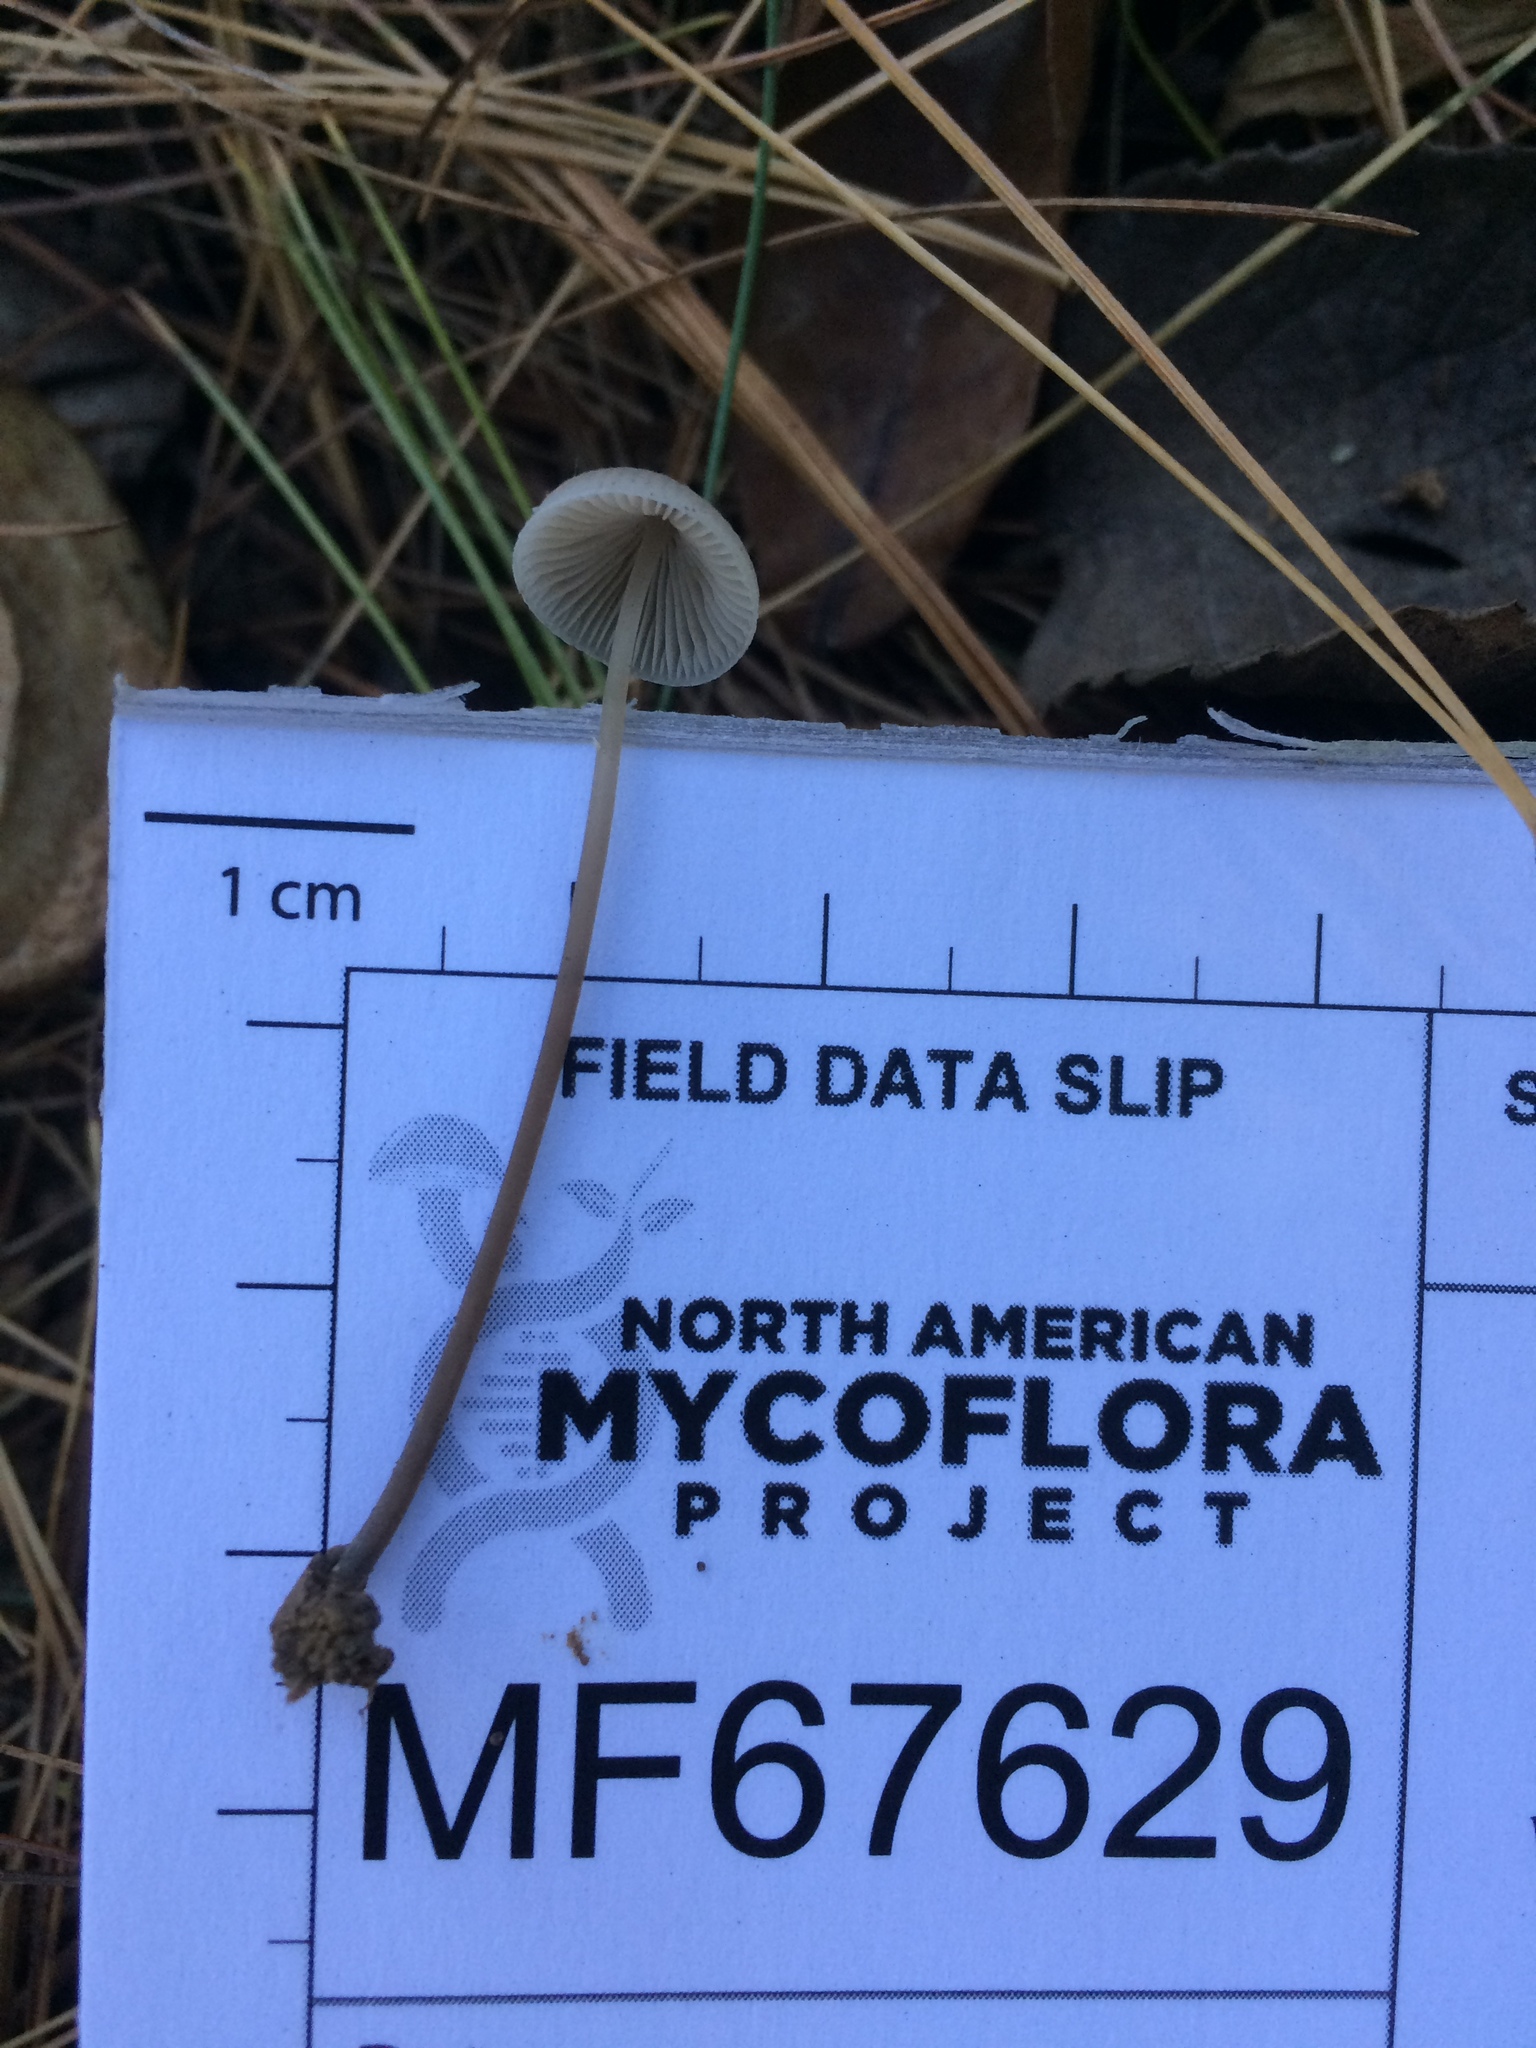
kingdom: Fungi
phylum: Basidiomycota
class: Agaricomycetes
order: Agaricales
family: Mycenaceae
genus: Mycena
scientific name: Mycena filopes
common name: Iodine bonnet
